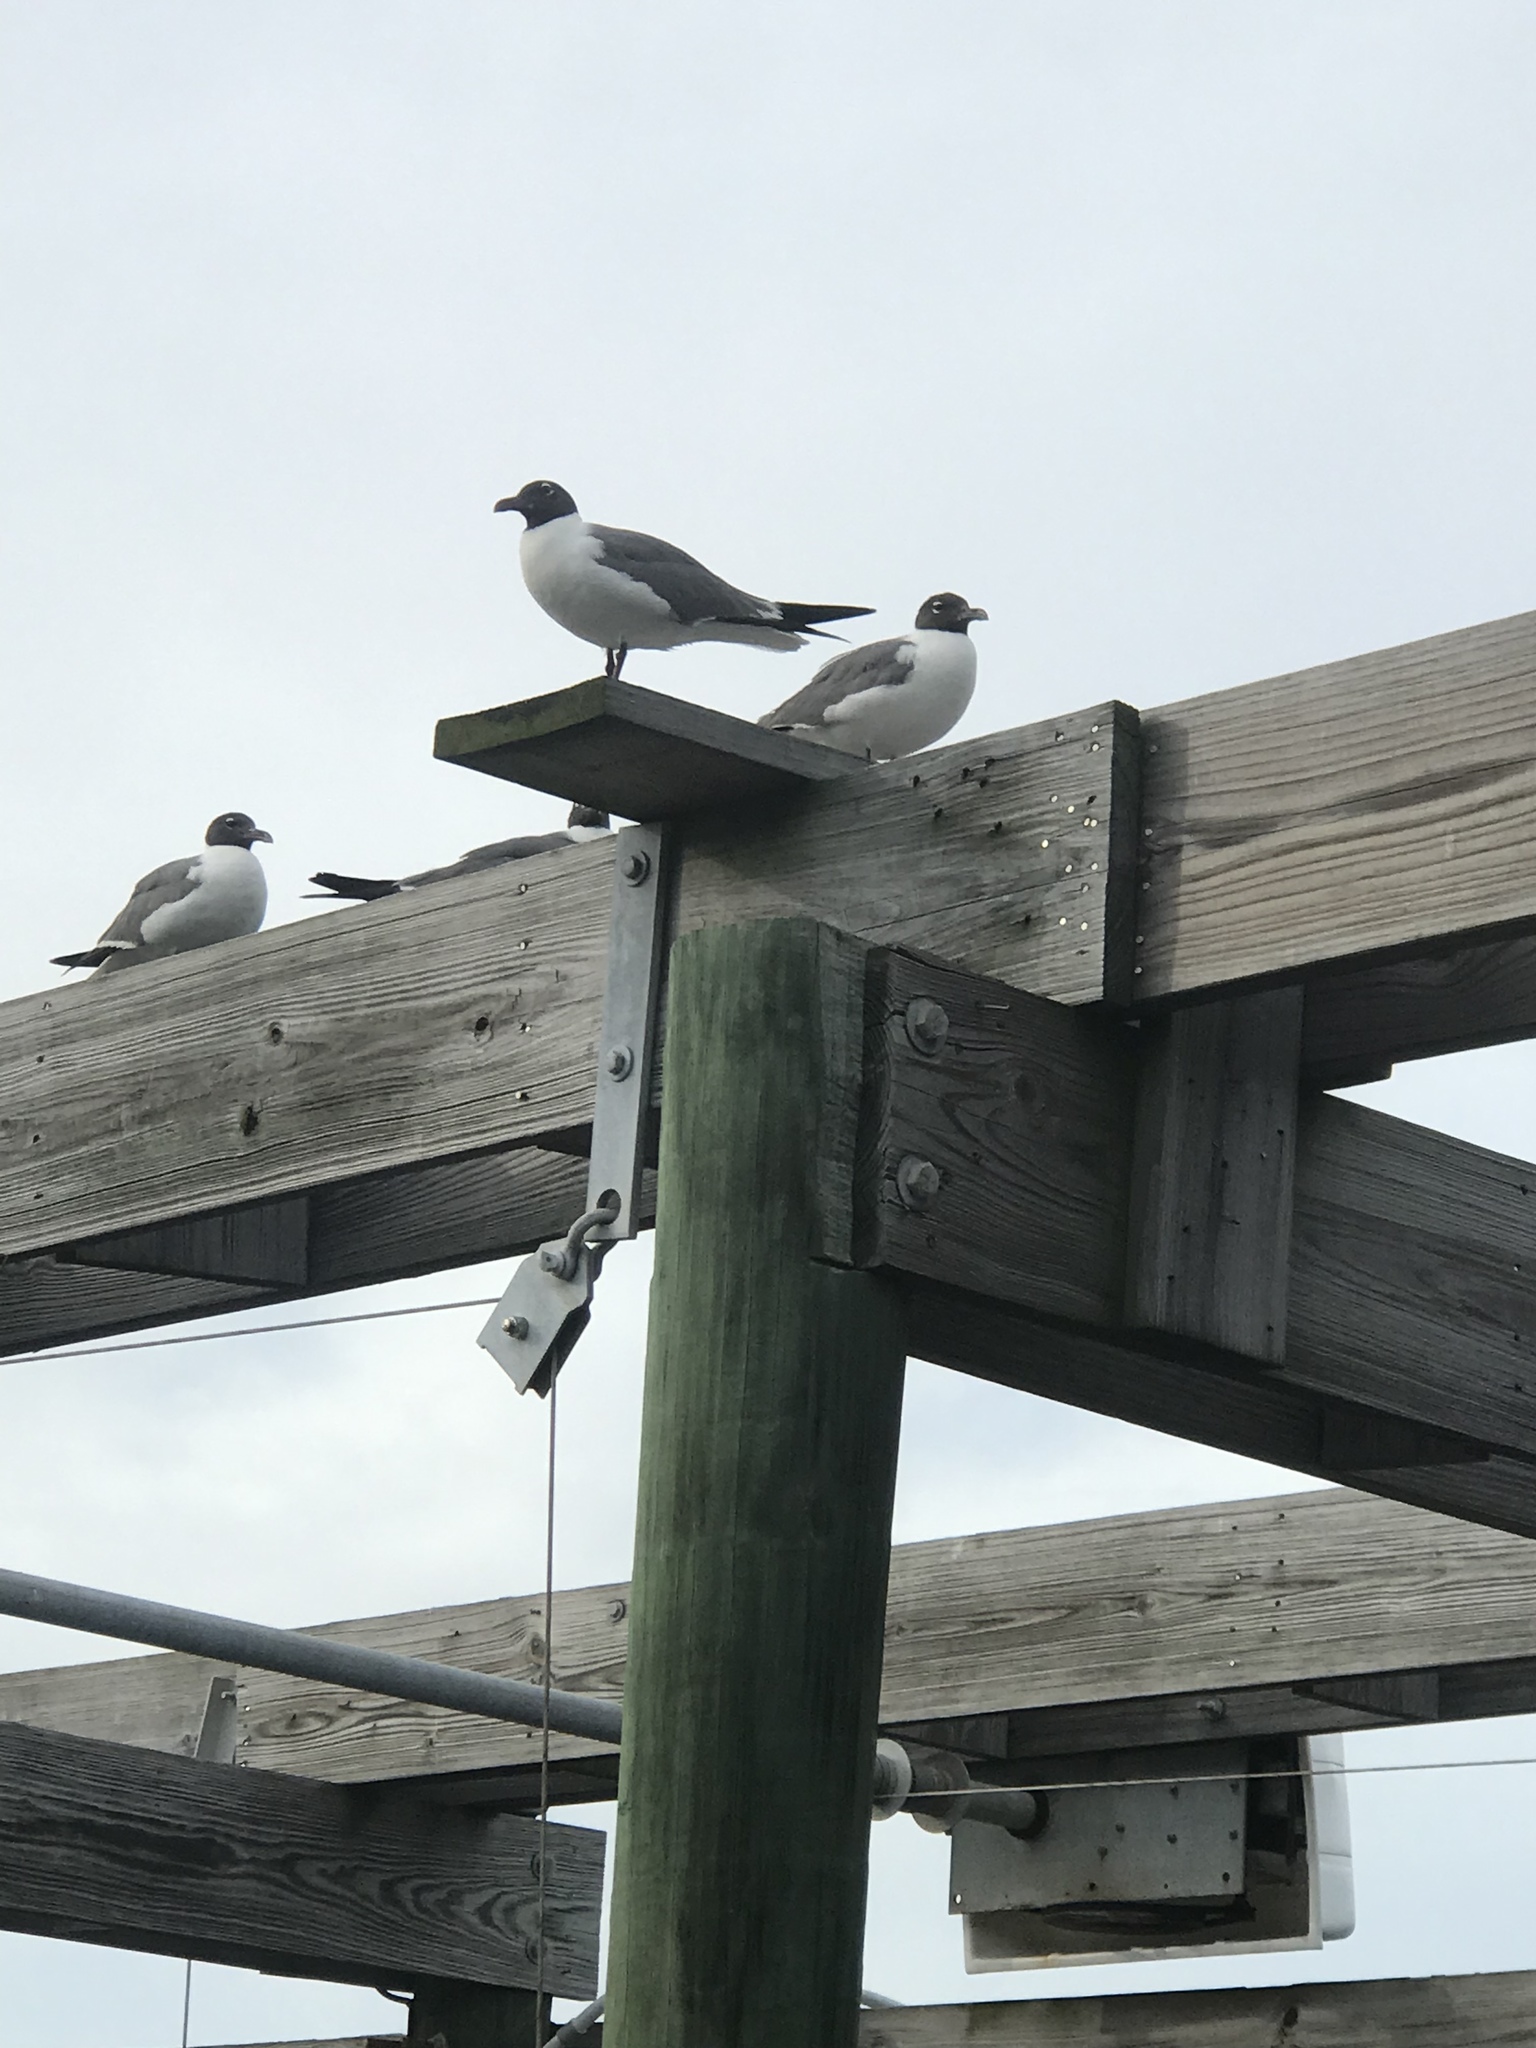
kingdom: Animalia
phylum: Chordata
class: Aves
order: Charadriiformes
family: Laridae
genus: Leucophaeus
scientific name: Leucophaeus atricilla
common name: Laughing gull
